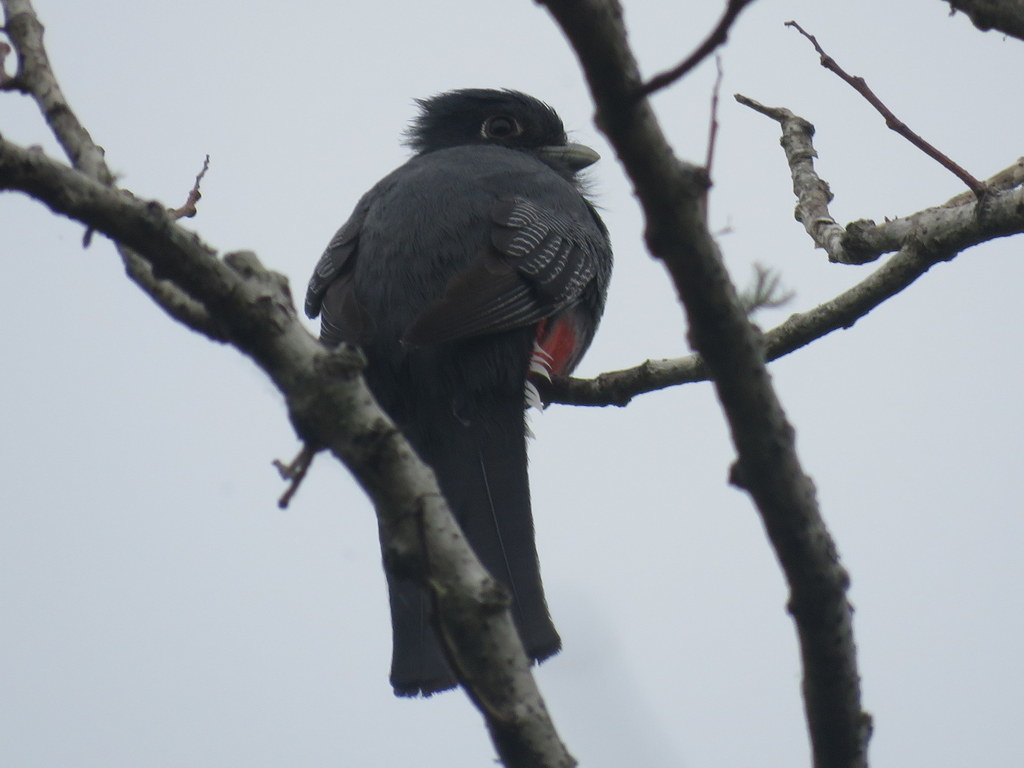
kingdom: Animalia
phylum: Chordata
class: Aves
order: Trogoniformes
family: Trogonidae
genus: Trogon
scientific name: Trogon surrucura
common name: Surucua trogon
